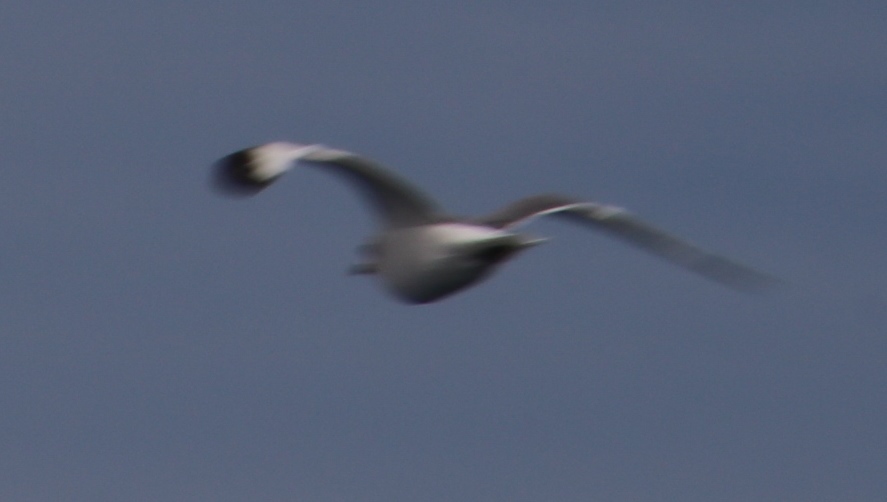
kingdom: Animalia
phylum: Chordata
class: Aves
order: Charadriiformes
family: Laridae
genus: Xema
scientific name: Xema sabini
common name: Sabine's gull
